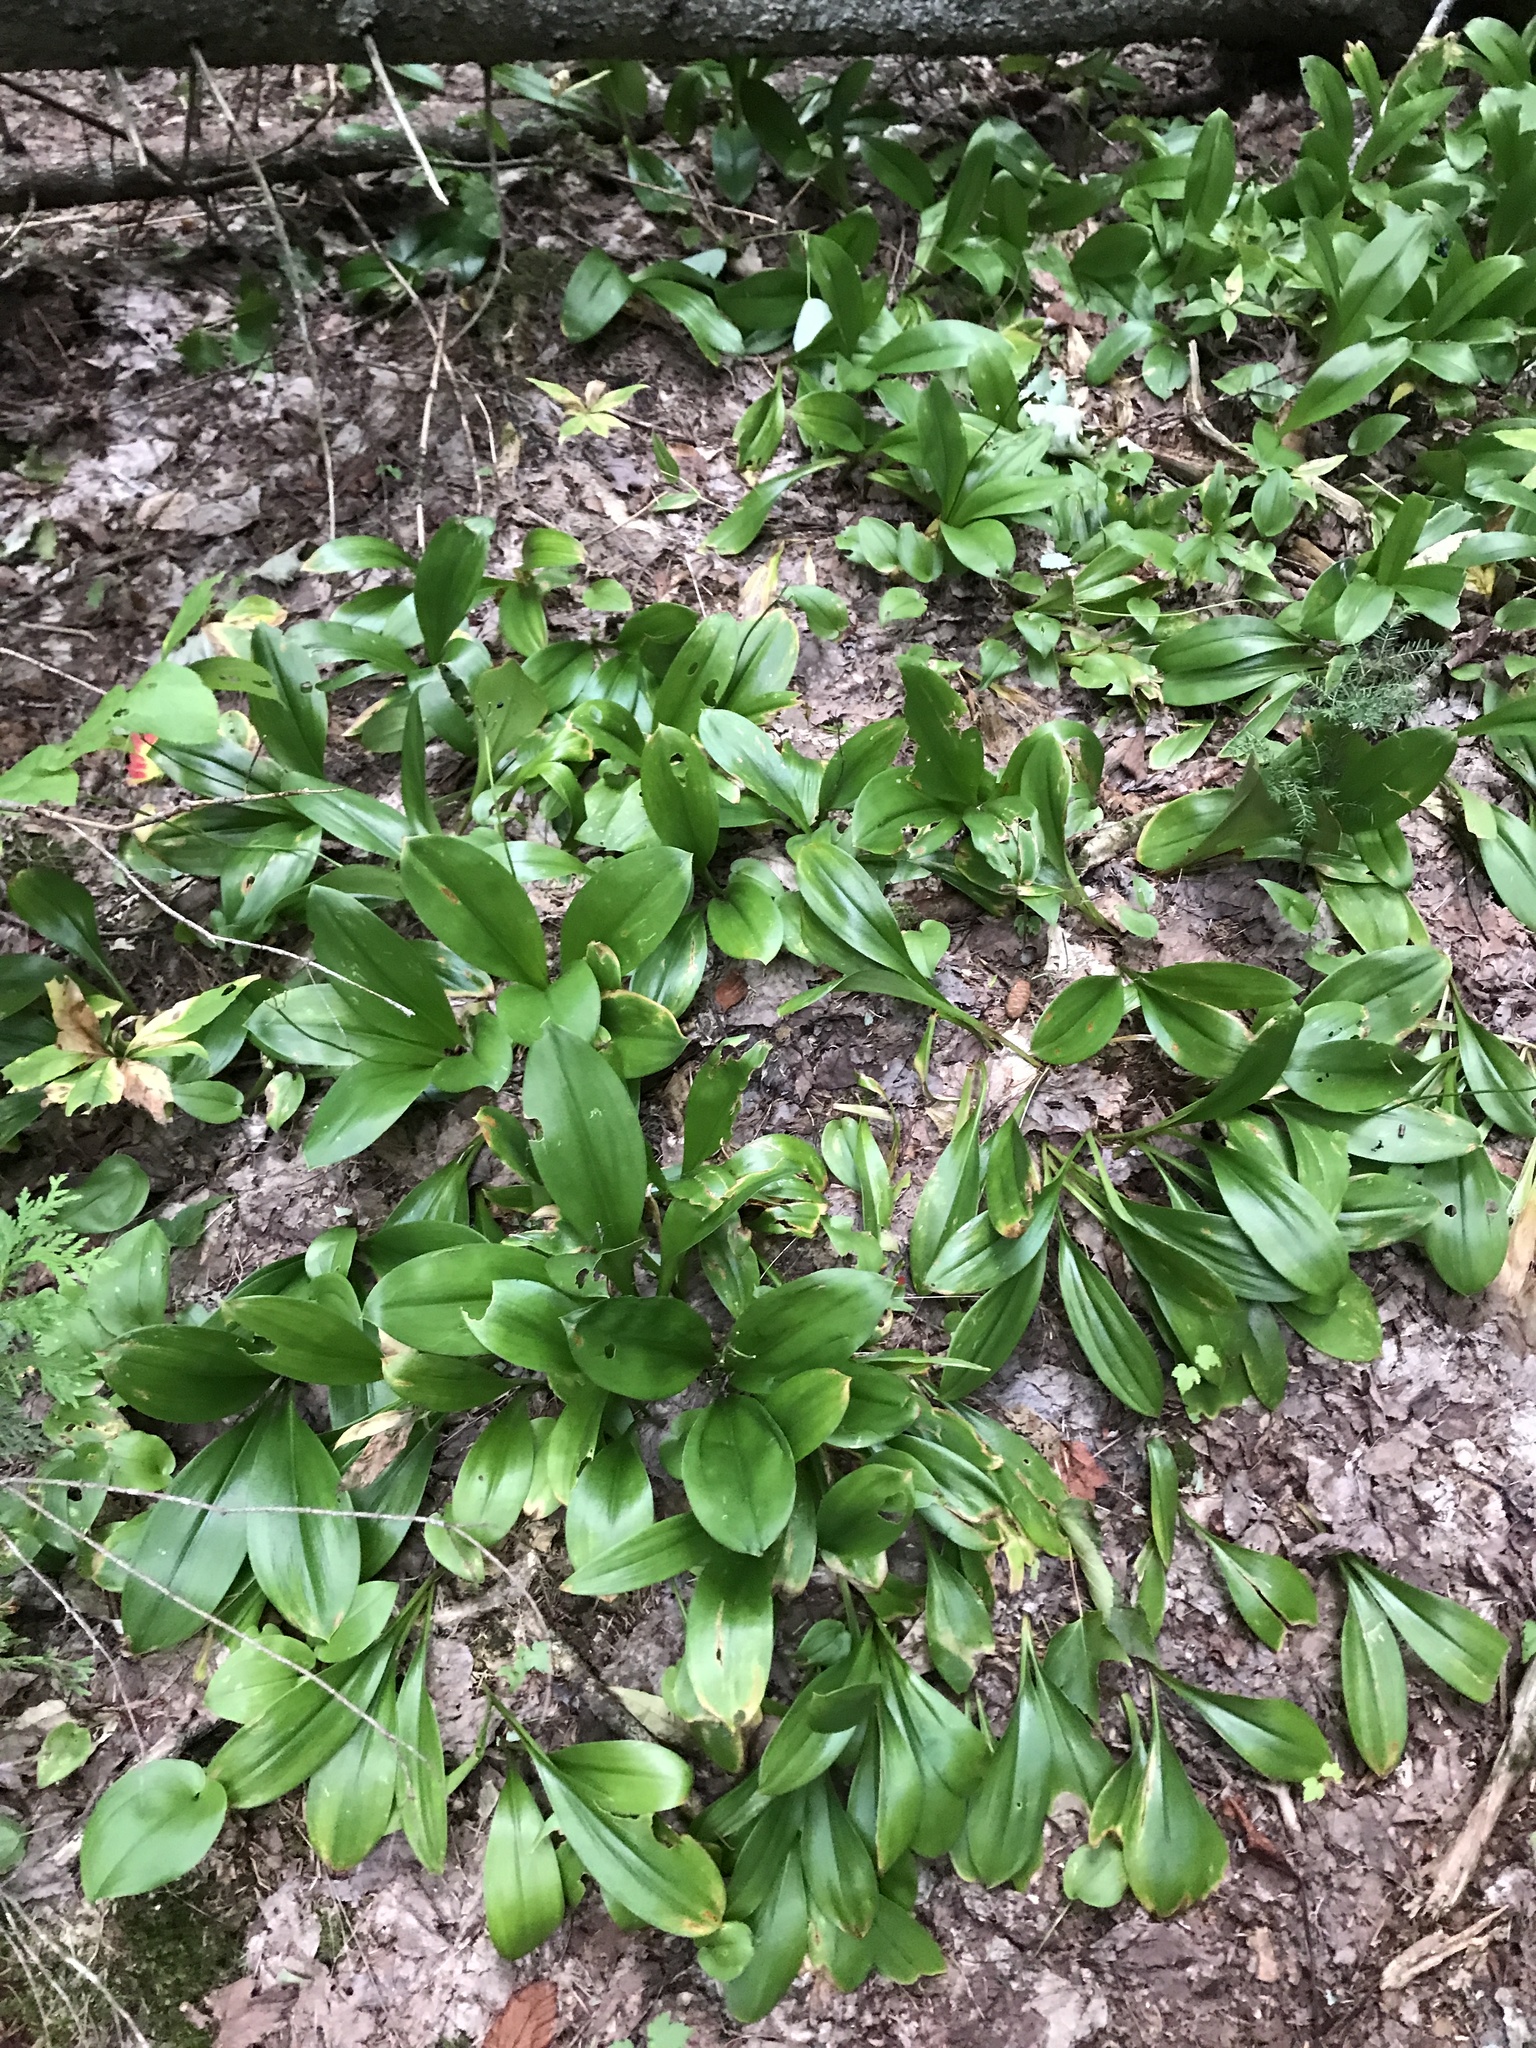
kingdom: Plantae
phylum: Tracheophyta
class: Liliopsida
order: Liliales
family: Liliaceae
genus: Clintonia
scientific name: Clintonia borealis
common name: Yellow clintonia
